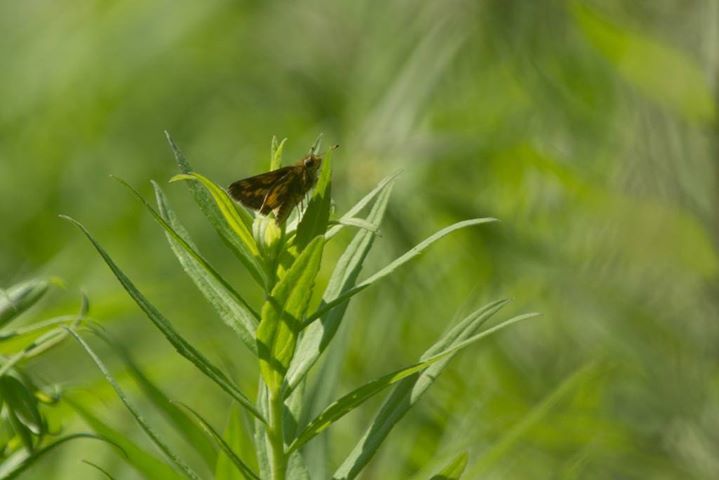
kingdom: Animalia
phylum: Arthropoda
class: Insecta
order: Lepidoptera
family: Hesperiidae
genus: Polites
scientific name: Polites coras
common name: Peck's skipper
